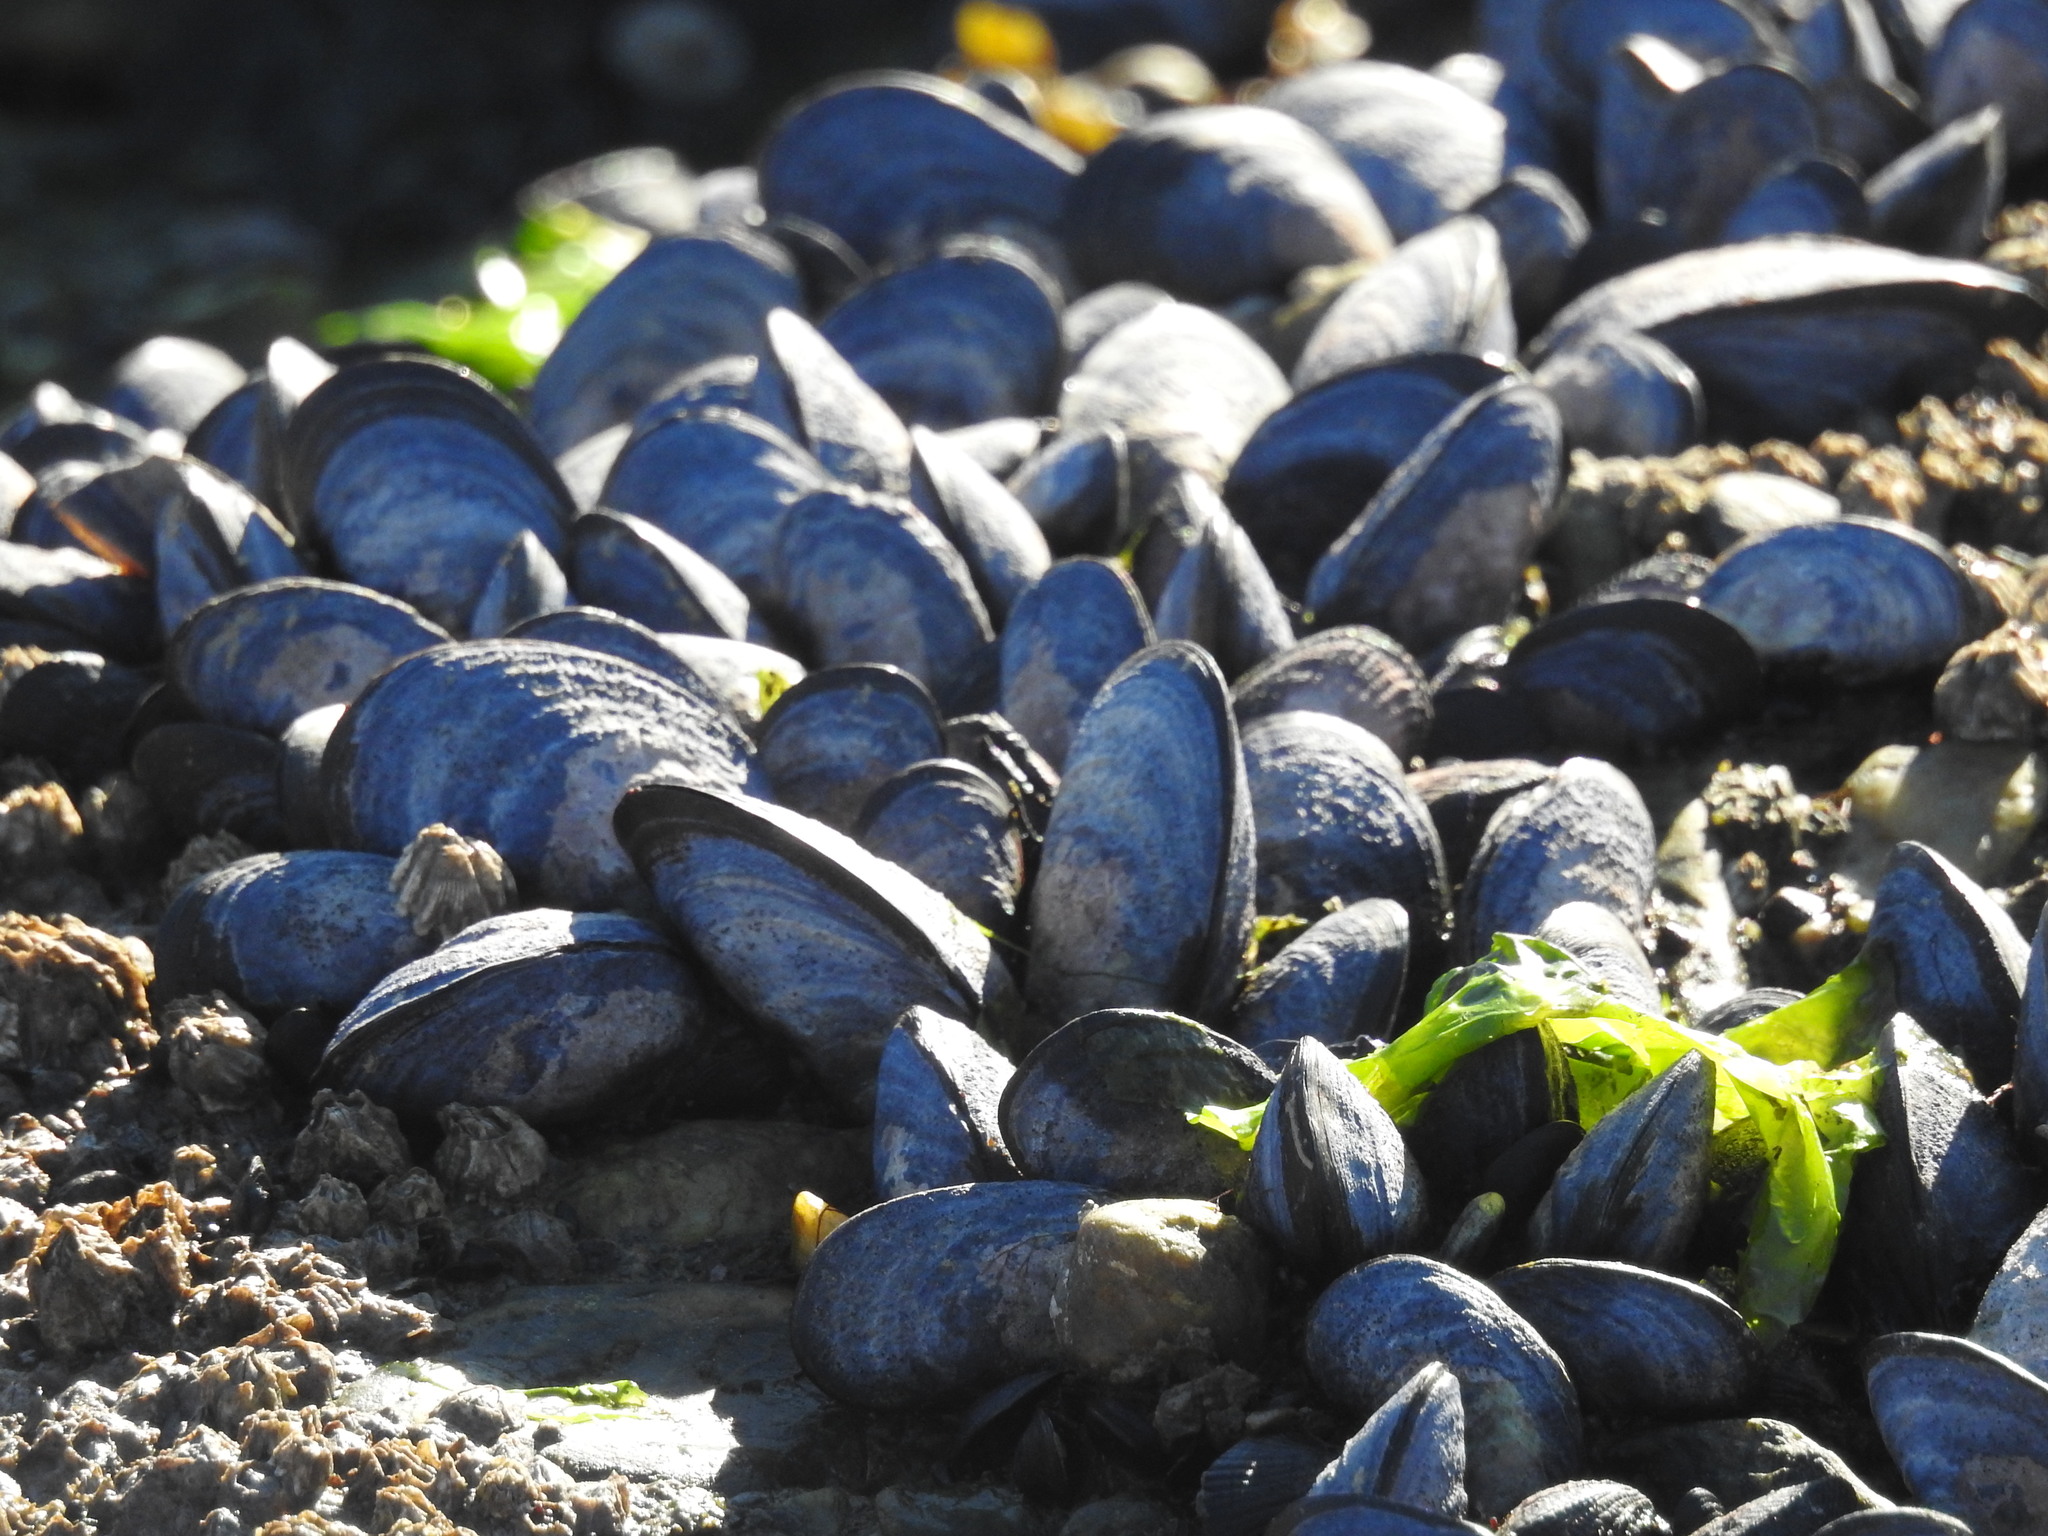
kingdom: Animalia
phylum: Mollusca
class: Bivalvia
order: Mytilida
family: Mytilidae
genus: Mytilus
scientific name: Mytilus chilensis
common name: Chilean mussel
